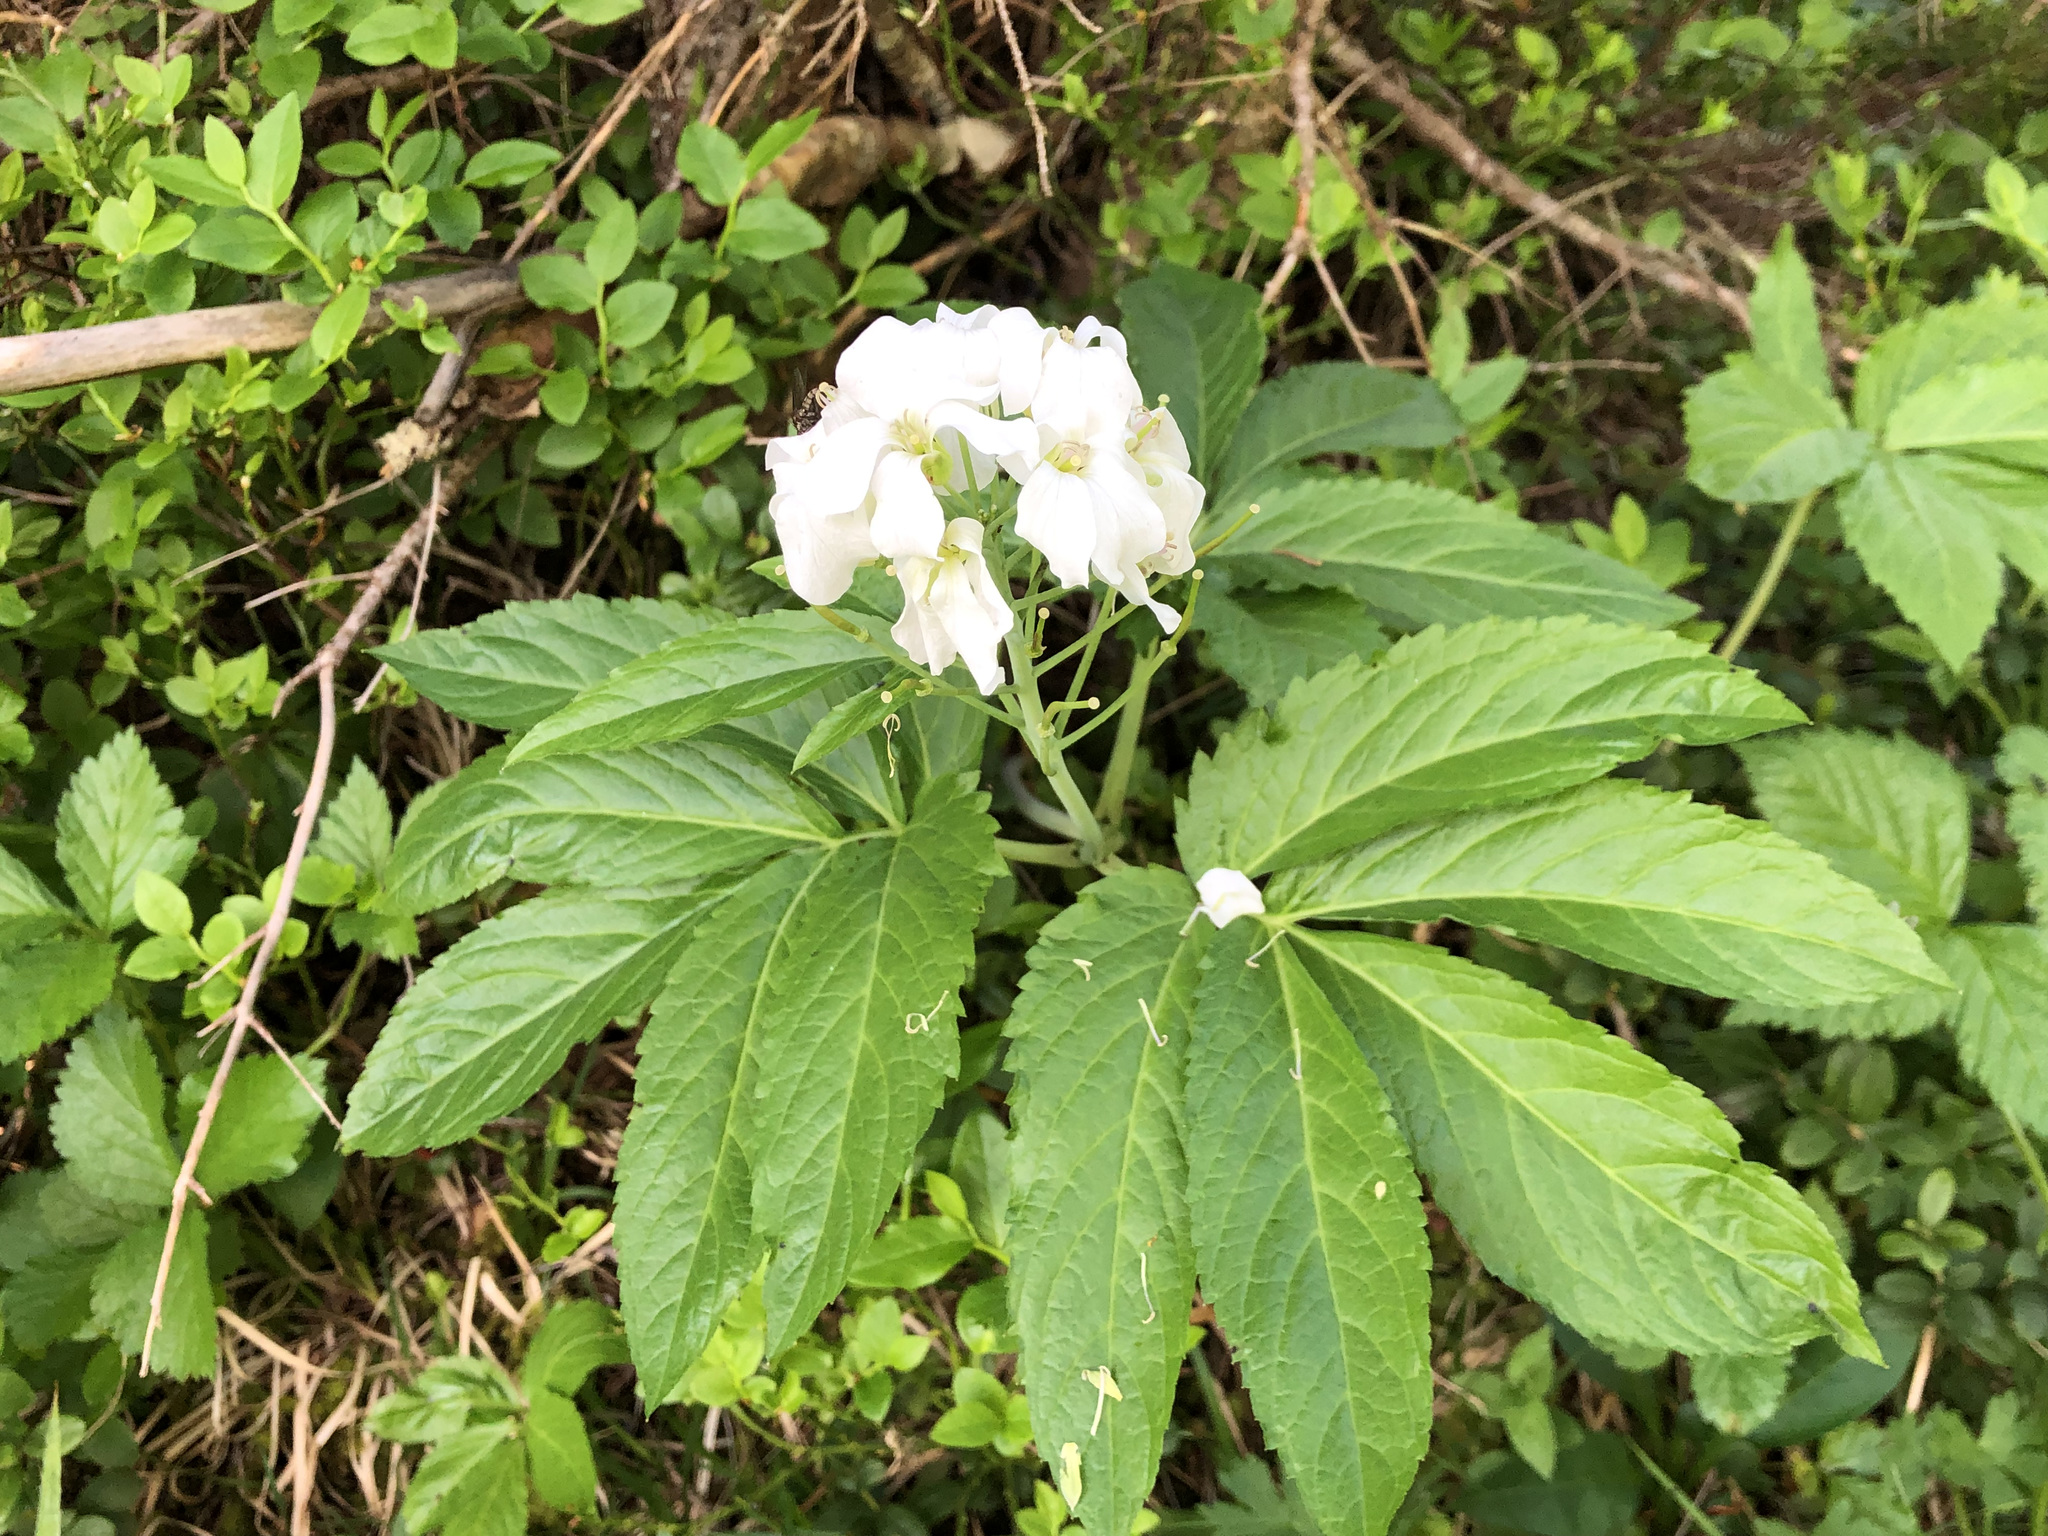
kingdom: Plantae
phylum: Tracheophyta
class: Magnoliopsida
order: Brassicales
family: Brassicaceae
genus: Cardamine
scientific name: Cardamine heptaphylla
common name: Pinnate coralroot
